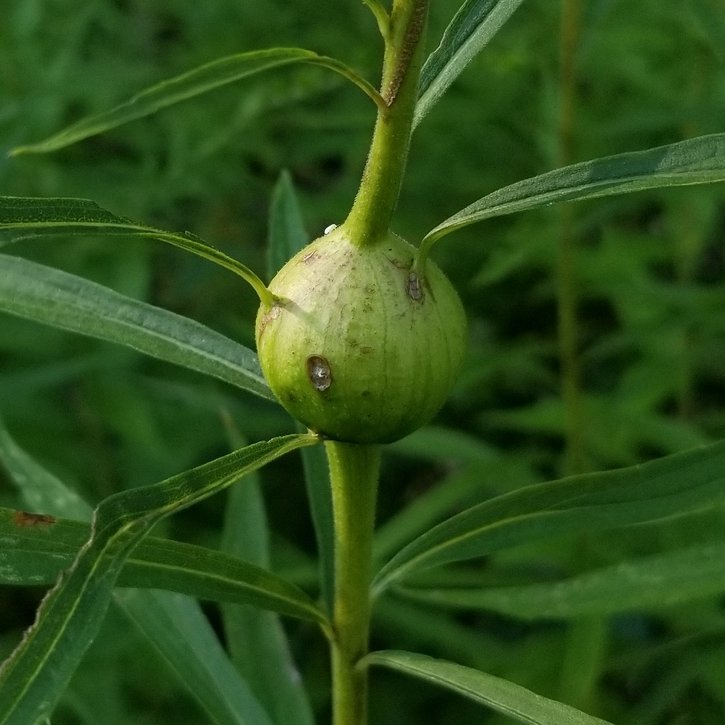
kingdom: Animalia
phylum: Arthropoda
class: Insecta
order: Diptera
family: Tephritidae
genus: Eurosta
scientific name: Eurosta solidaginis
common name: Goldenrod gall fly
